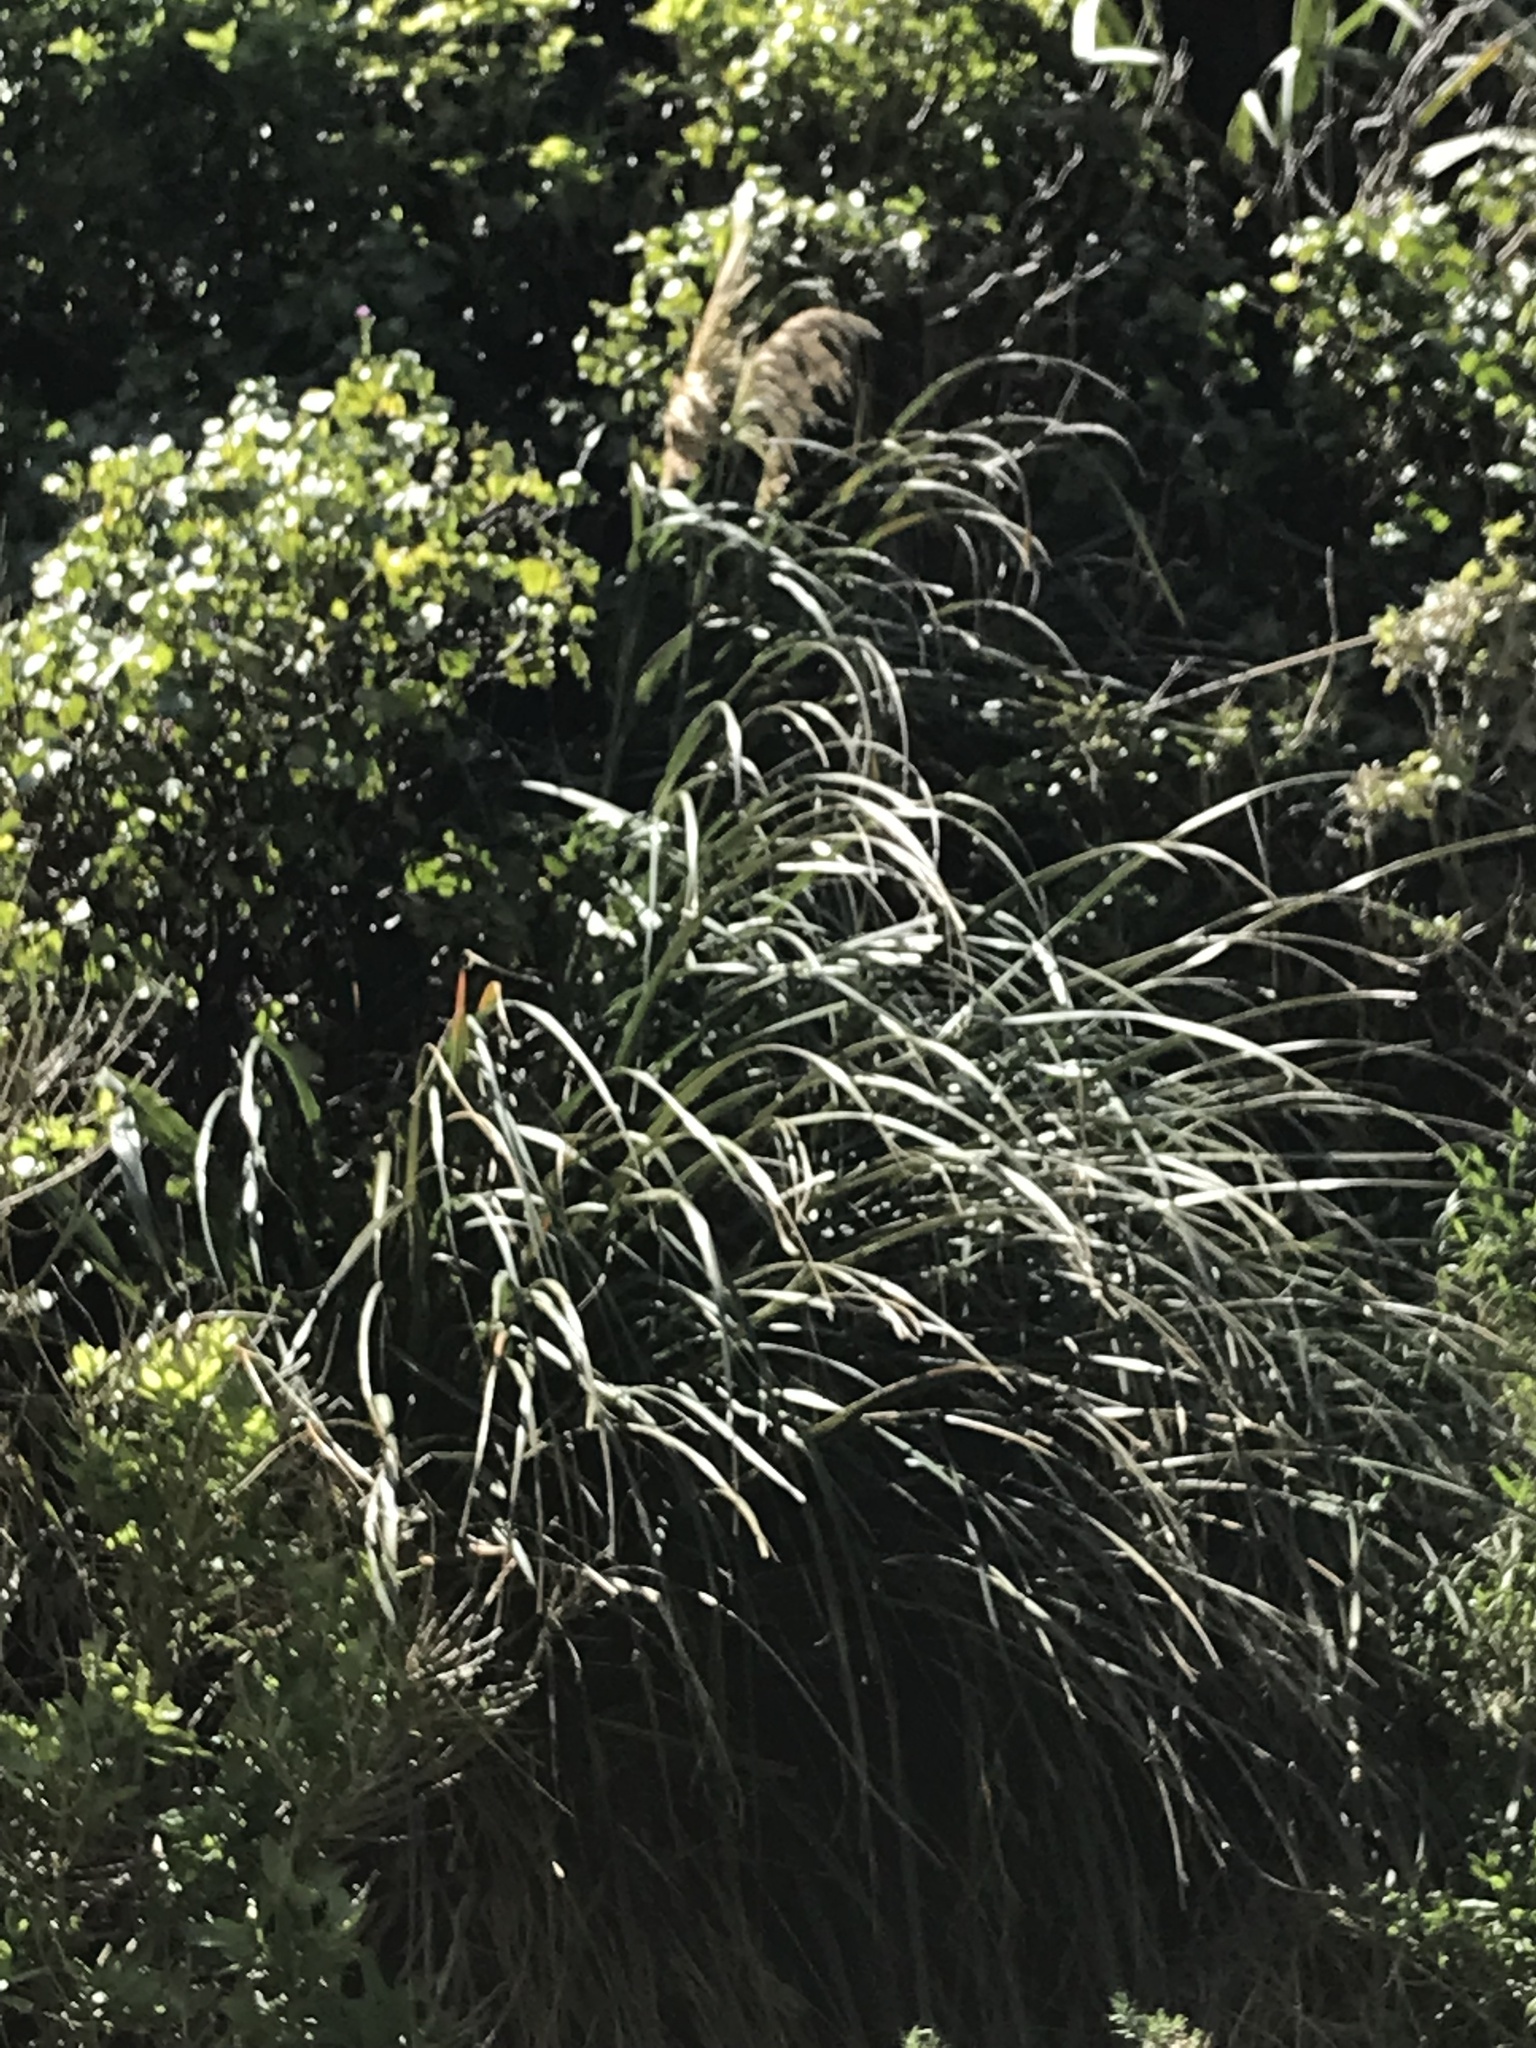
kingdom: Plantae
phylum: Tracheophyta
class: Liliopsida
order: Poales
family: Poaceae
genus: Austroderia
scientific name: Austroderia fulvida
